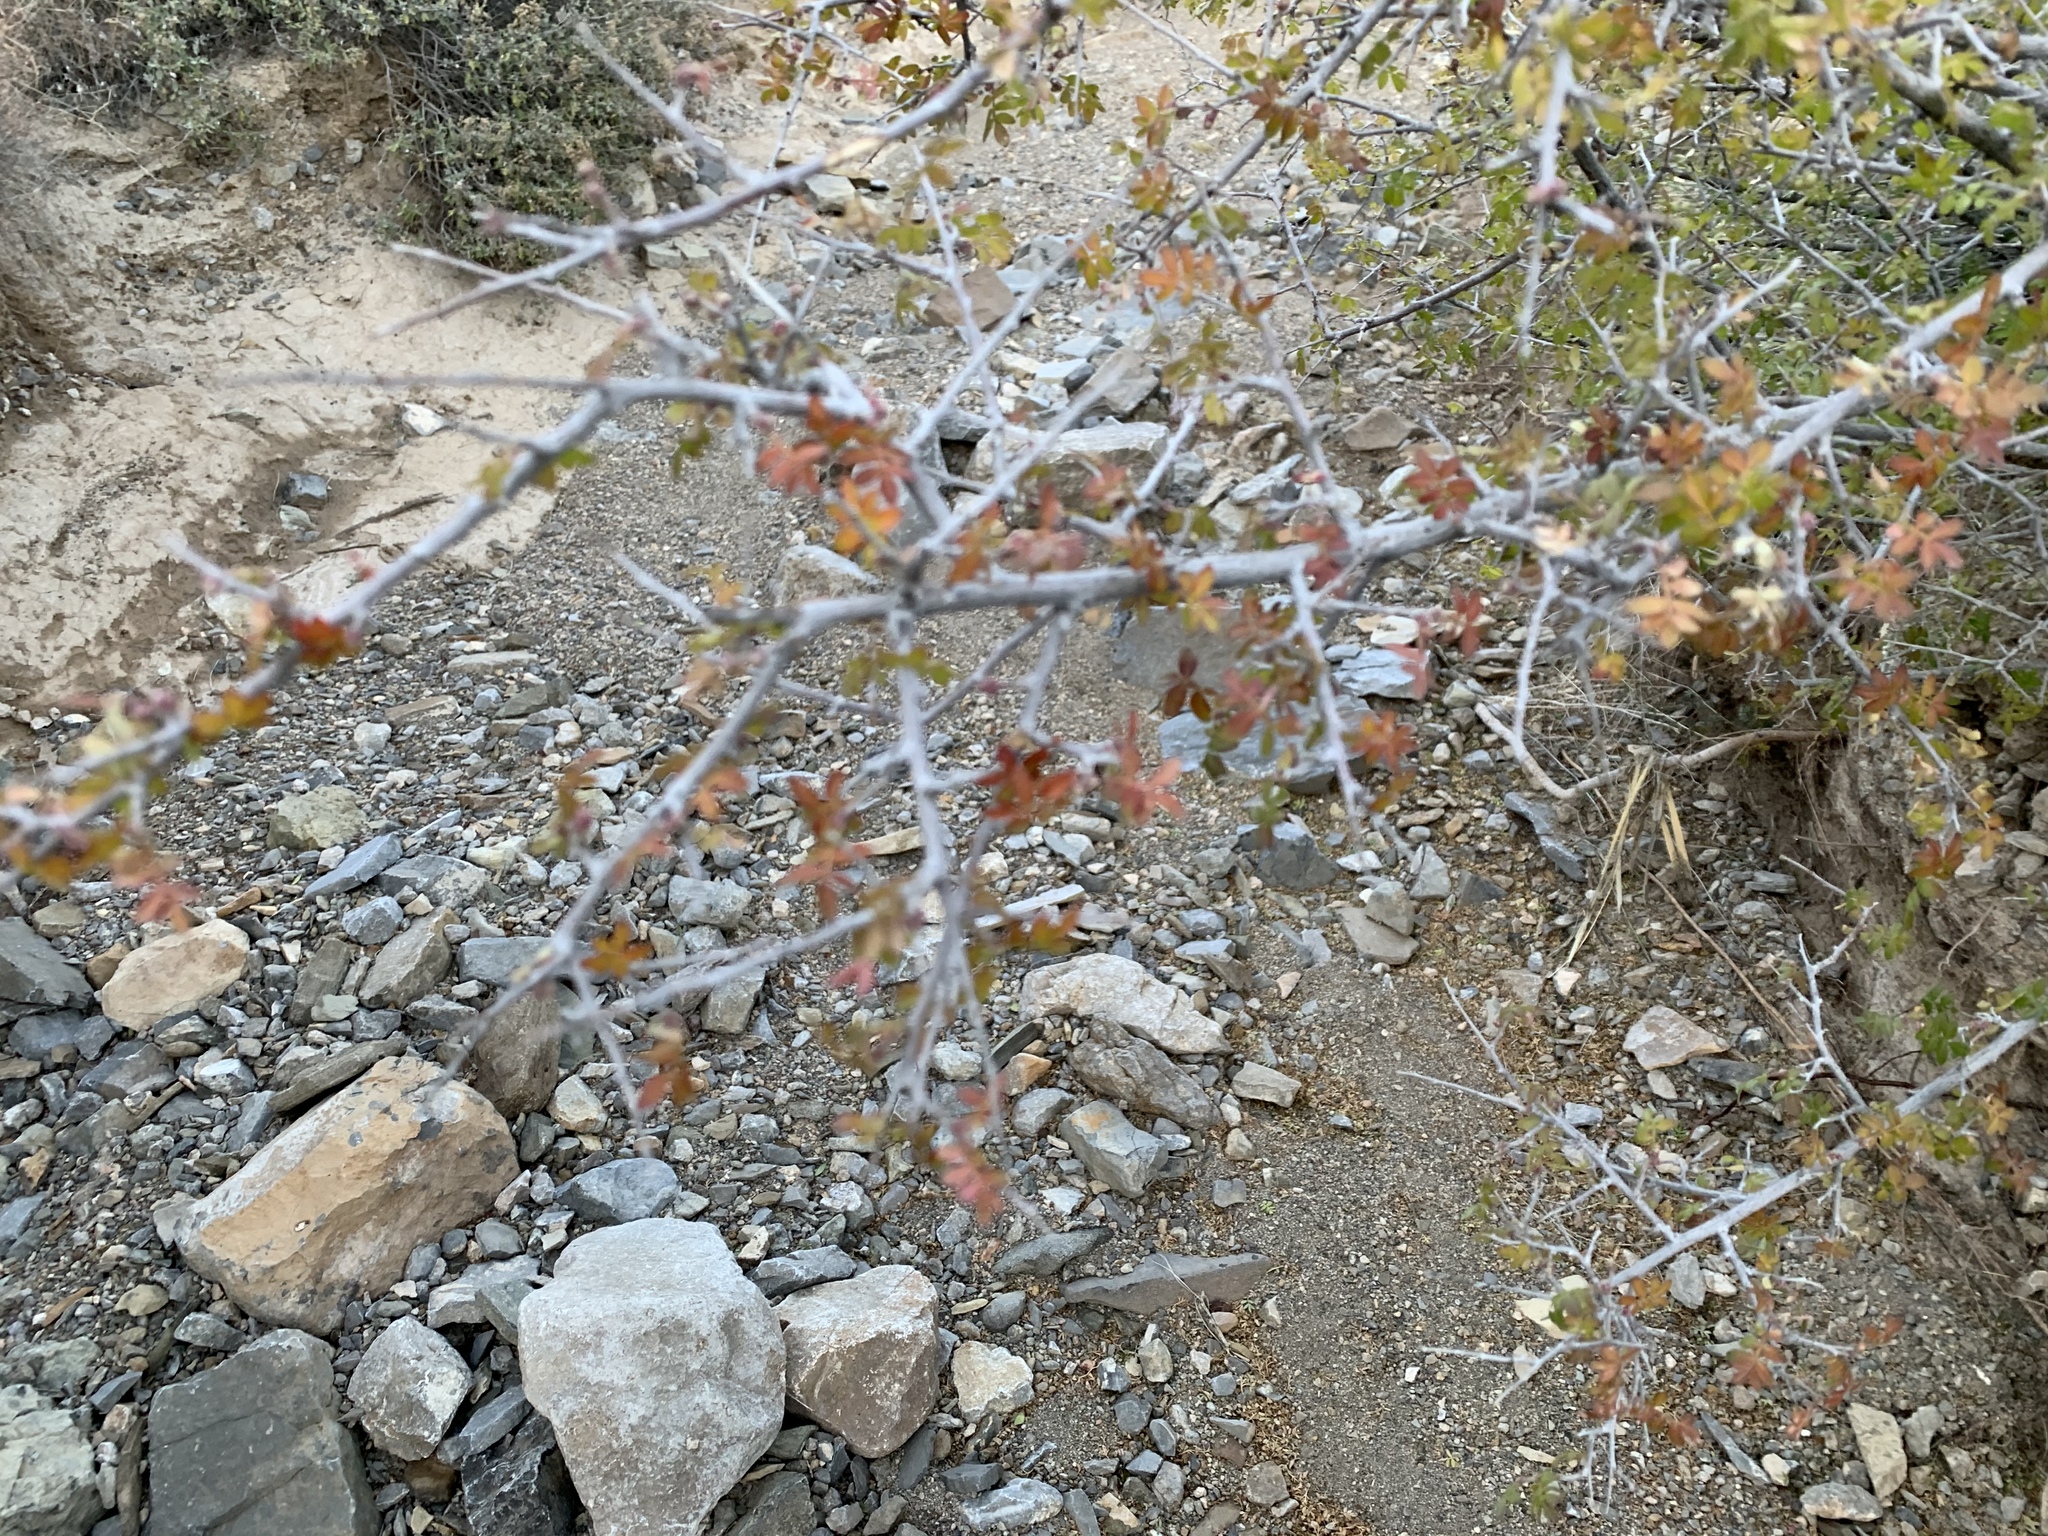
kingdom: Plantae
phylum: Tracheophyta
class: Magnoliopsida
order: Sapindales
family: Anacardiaceae
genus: Rhus
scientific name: Rhus microphylla
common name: Desert sumac
